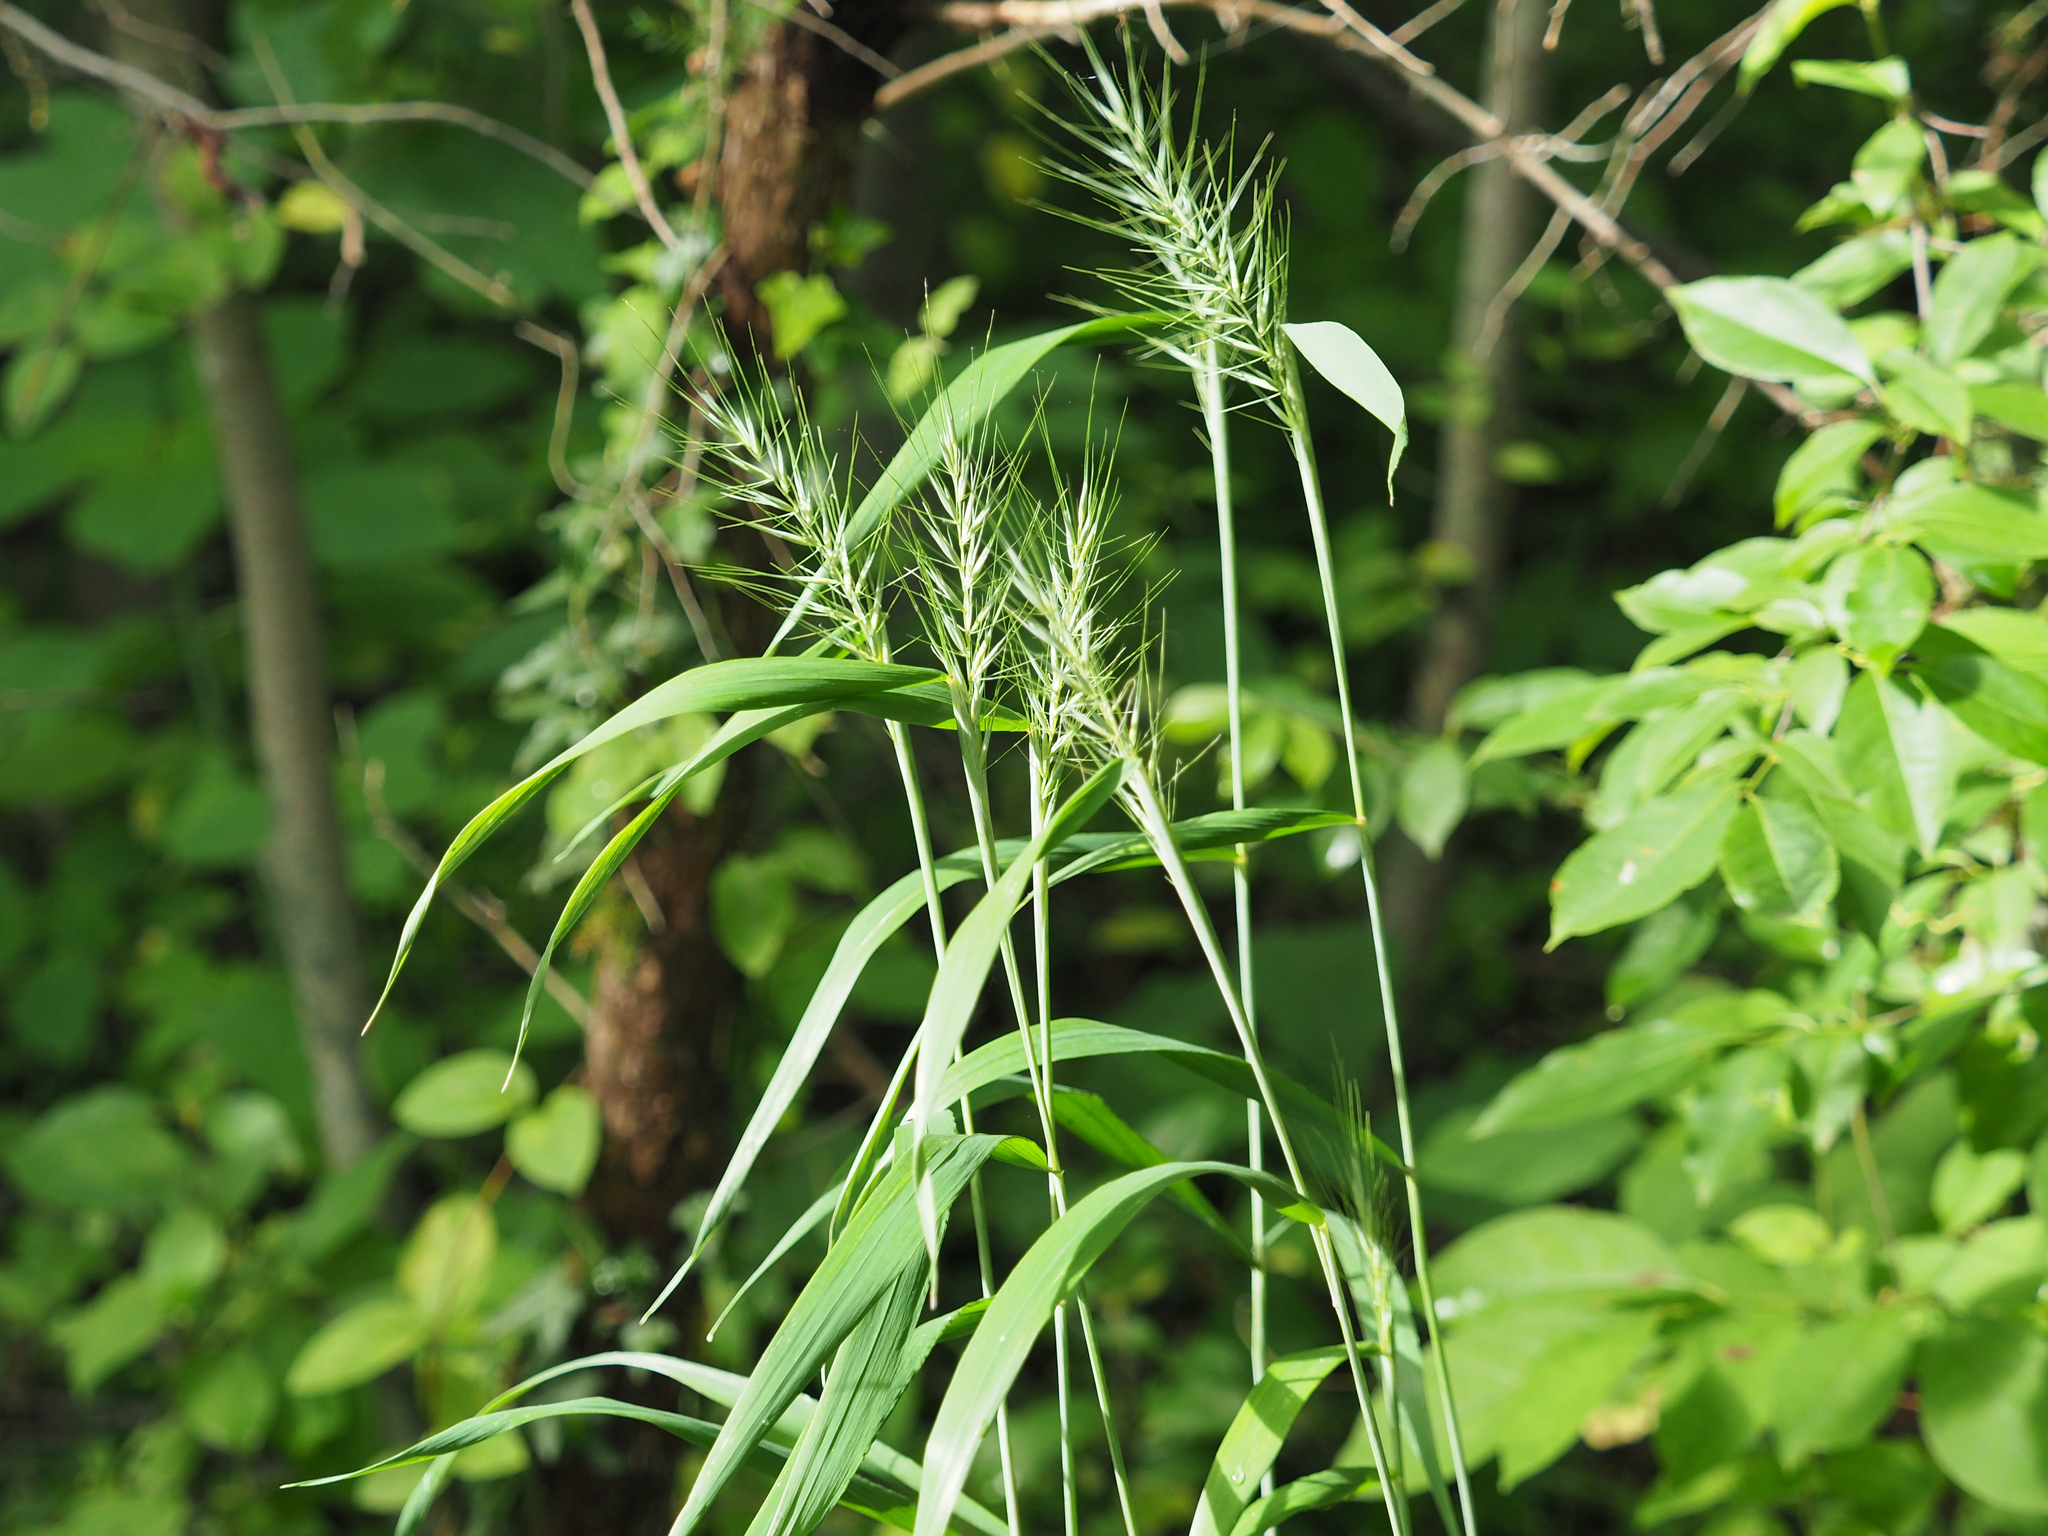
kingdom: Plantae
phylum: Tracheophyta
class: Liliopsida
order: Poales
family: Poaceae
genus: Elymus
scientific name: Elymus hystrix
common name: Bottlebrush grass
